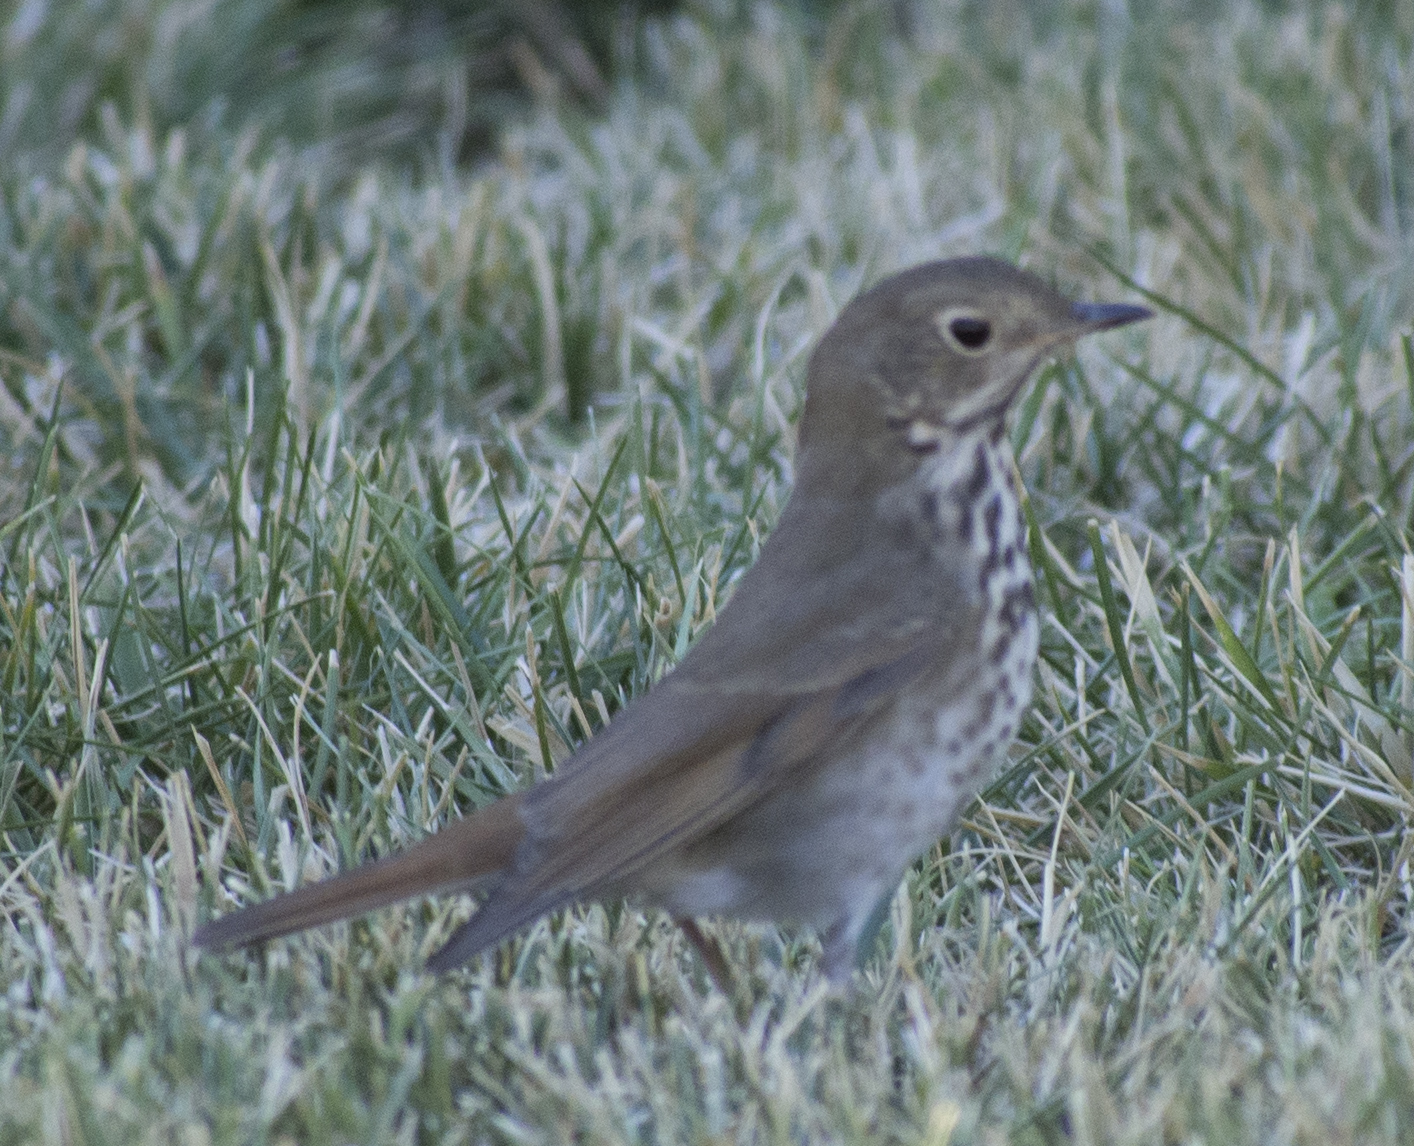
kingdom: Animalia
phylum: Chordata
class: Aves
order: Passeriformes
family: Turdidae
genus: Catharus
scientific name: Catharus guttatus
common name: Hermit thrush
